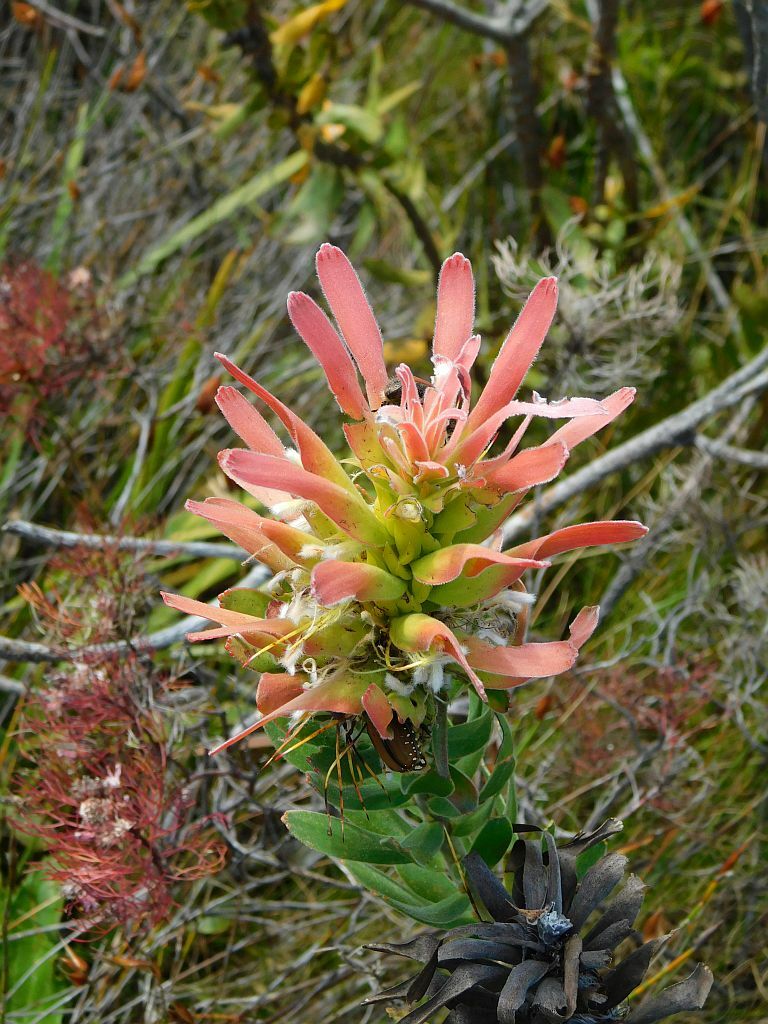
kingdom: Plantae
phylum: Tracheophyta
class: Magnoliopsida
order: Proteales
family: Proteaceae
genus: Mimetes
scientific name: Mimetes cucullatus
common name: Common pagoda
